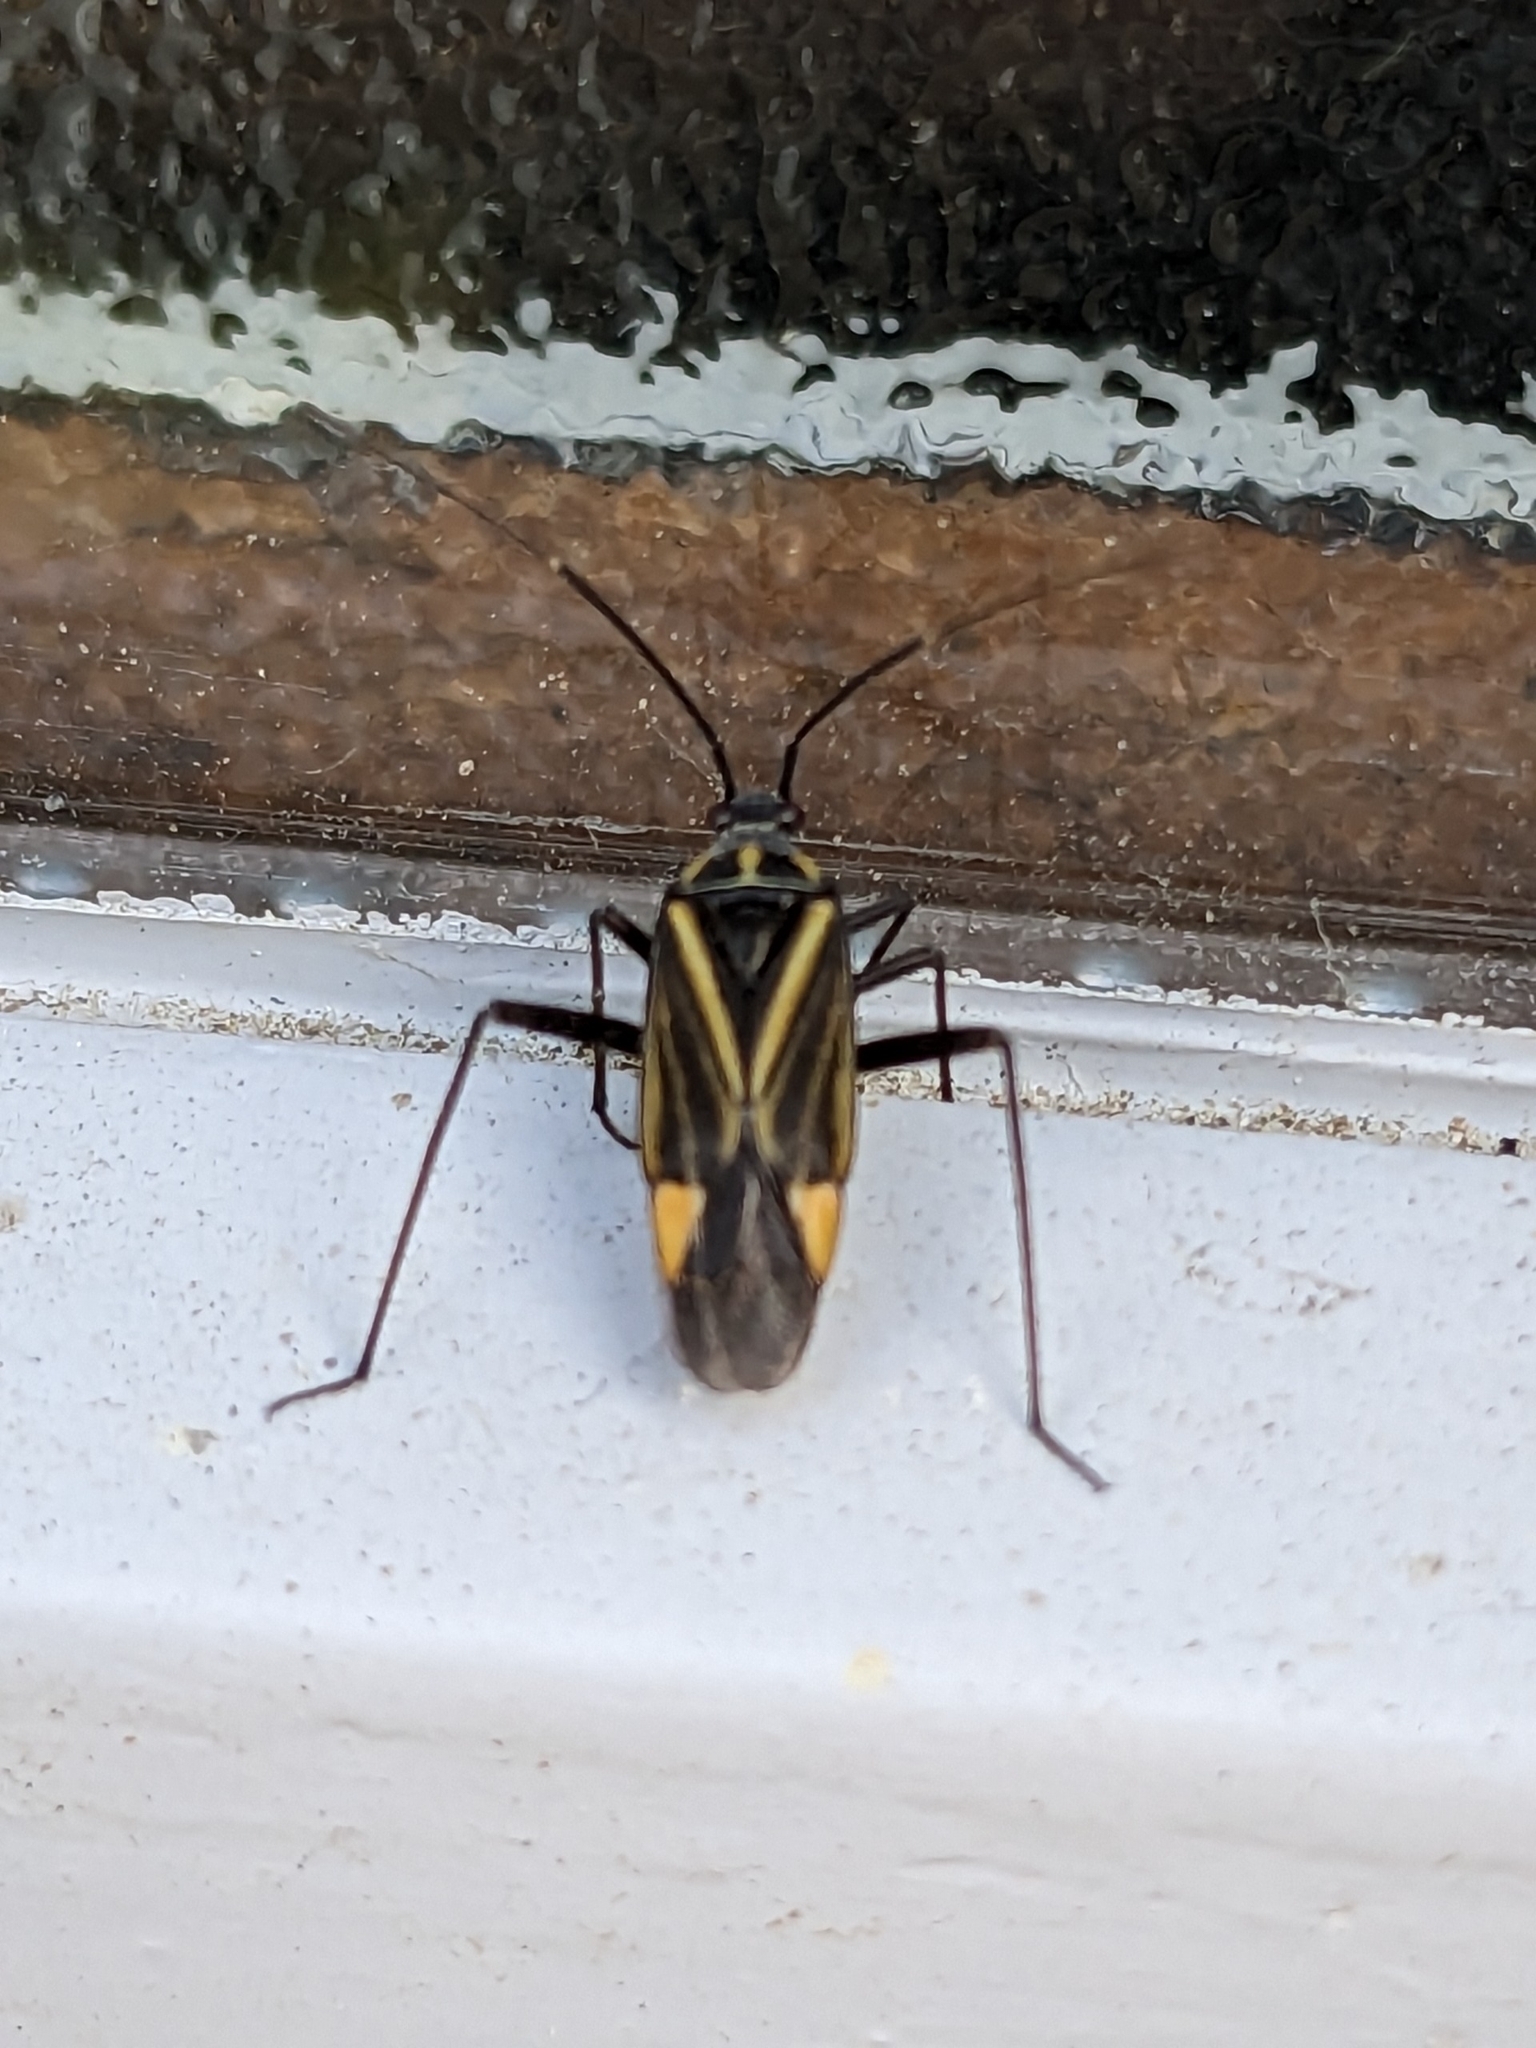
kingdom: Animalia
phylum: Arthropoda
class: Insecta
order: Hemiptera
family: Miridae
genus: Hadrodemus
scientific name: Hadrodemus m-flavum
